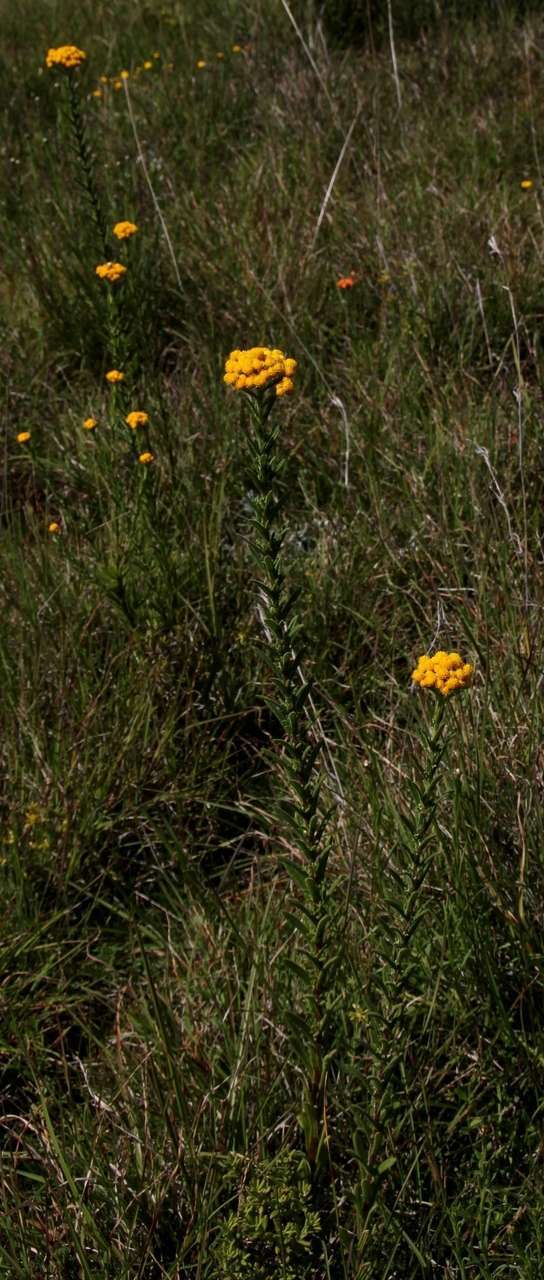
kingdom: Plantae
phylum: Tracheophyta
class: Magnoliopsida
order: Asterales
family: Asteraceae
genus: Chrysocephalum
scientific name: Chrysocephalum semipapposum
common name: Clustered everlasting
